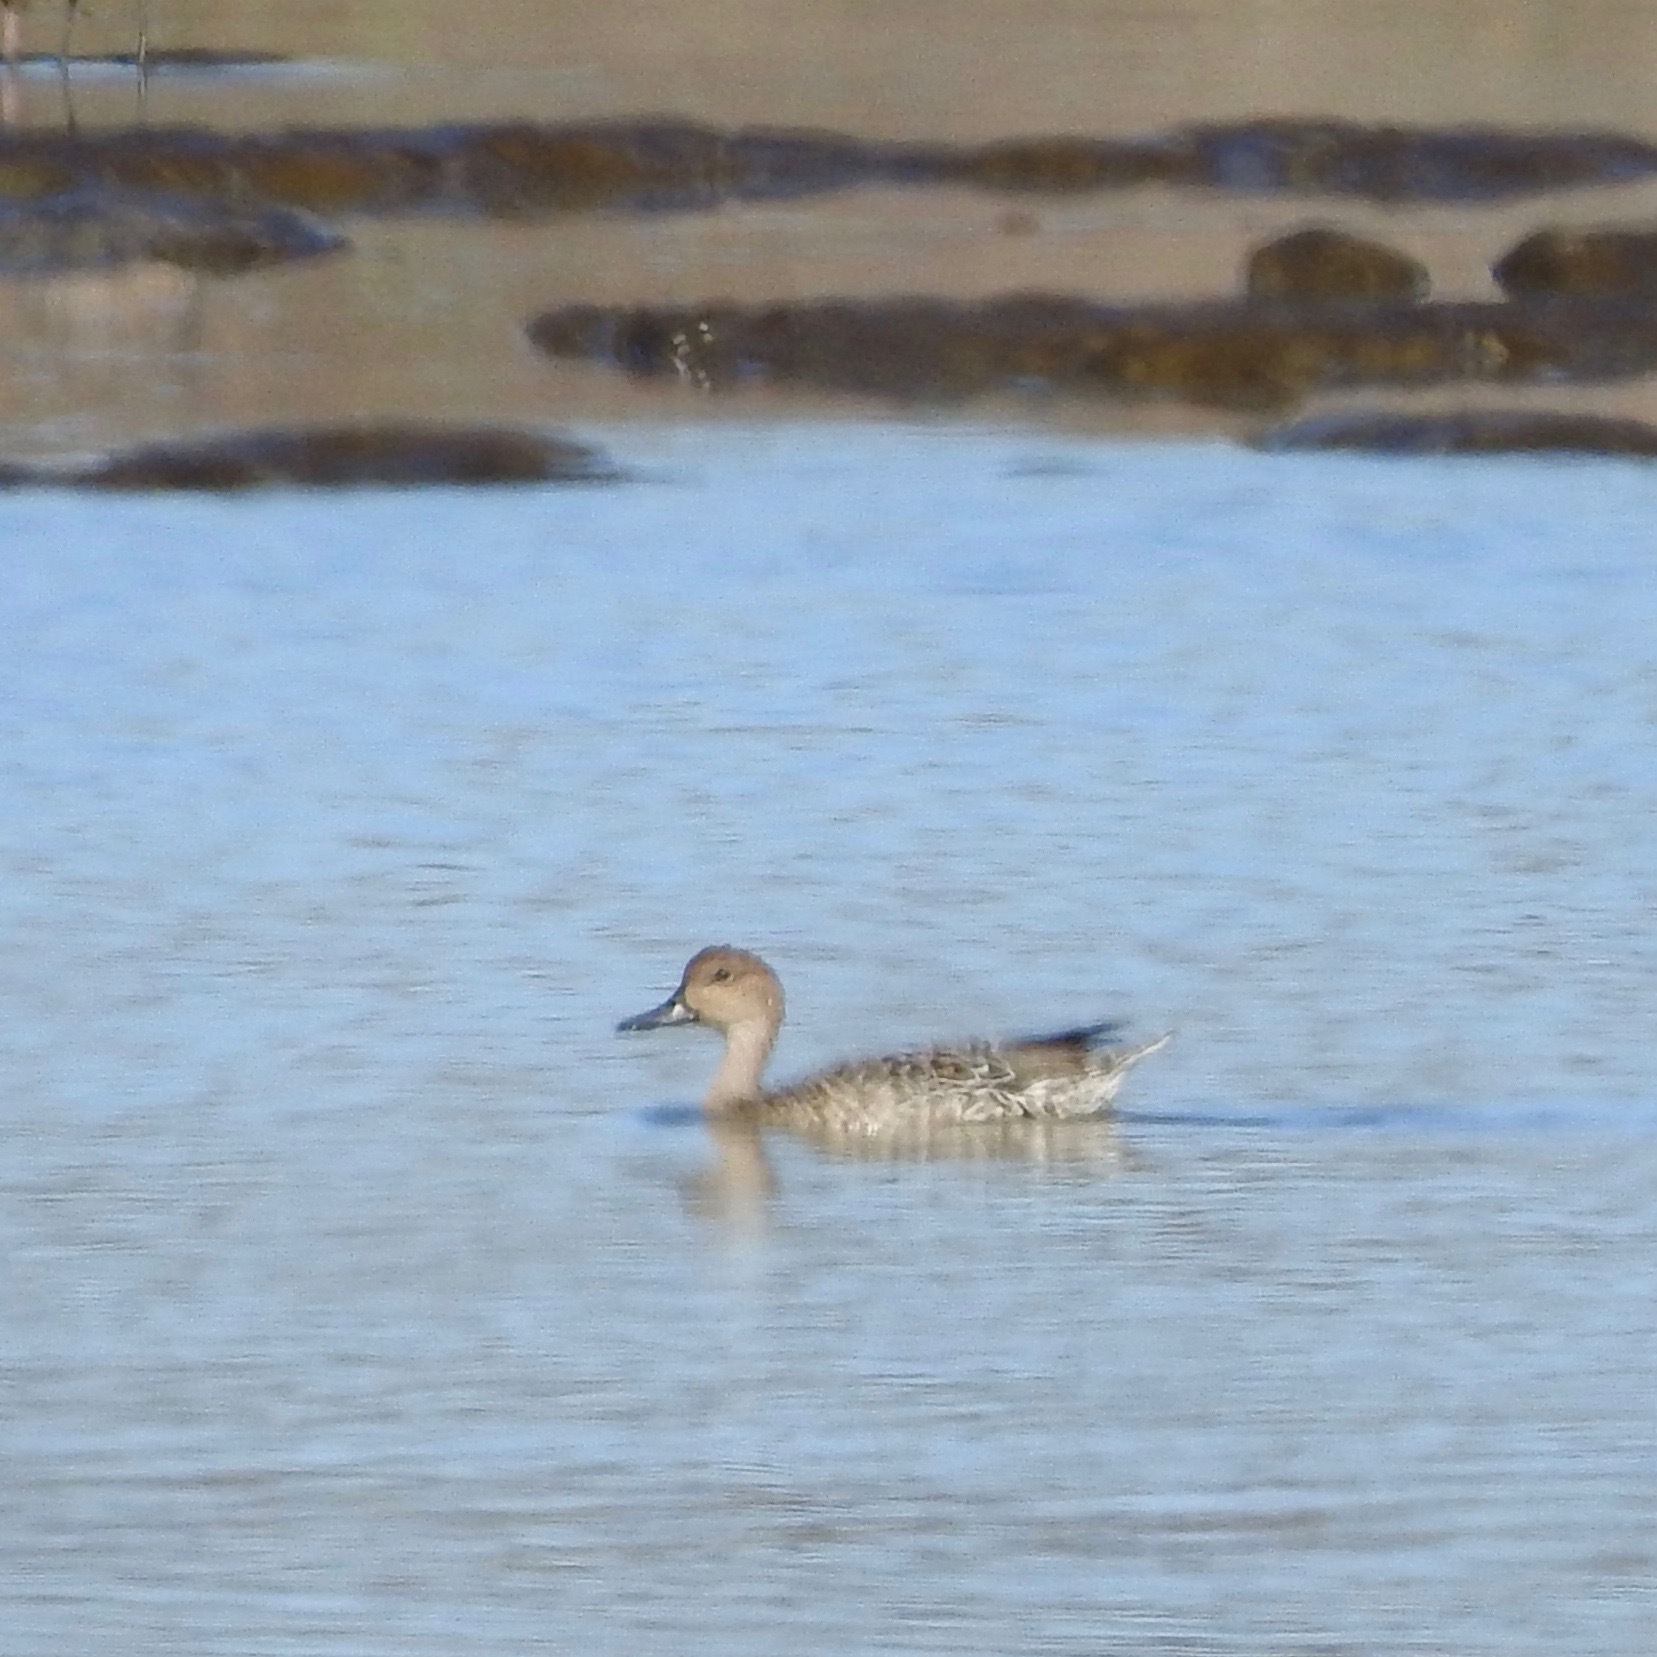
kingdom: Animalia
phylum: Chordata
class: Aves
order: Anseriformes
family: Anatidae
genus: Anas
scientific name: Anas acuta
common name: Northern pintail
